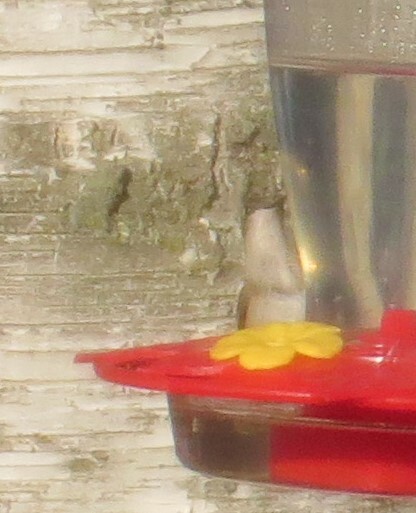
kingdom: Animalia
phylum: Chordata
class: Aves
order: Apodiformes
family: Trochilidae
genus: Archilochus
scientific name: Archilochus colubris
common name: Ruby-throated hummingbird
